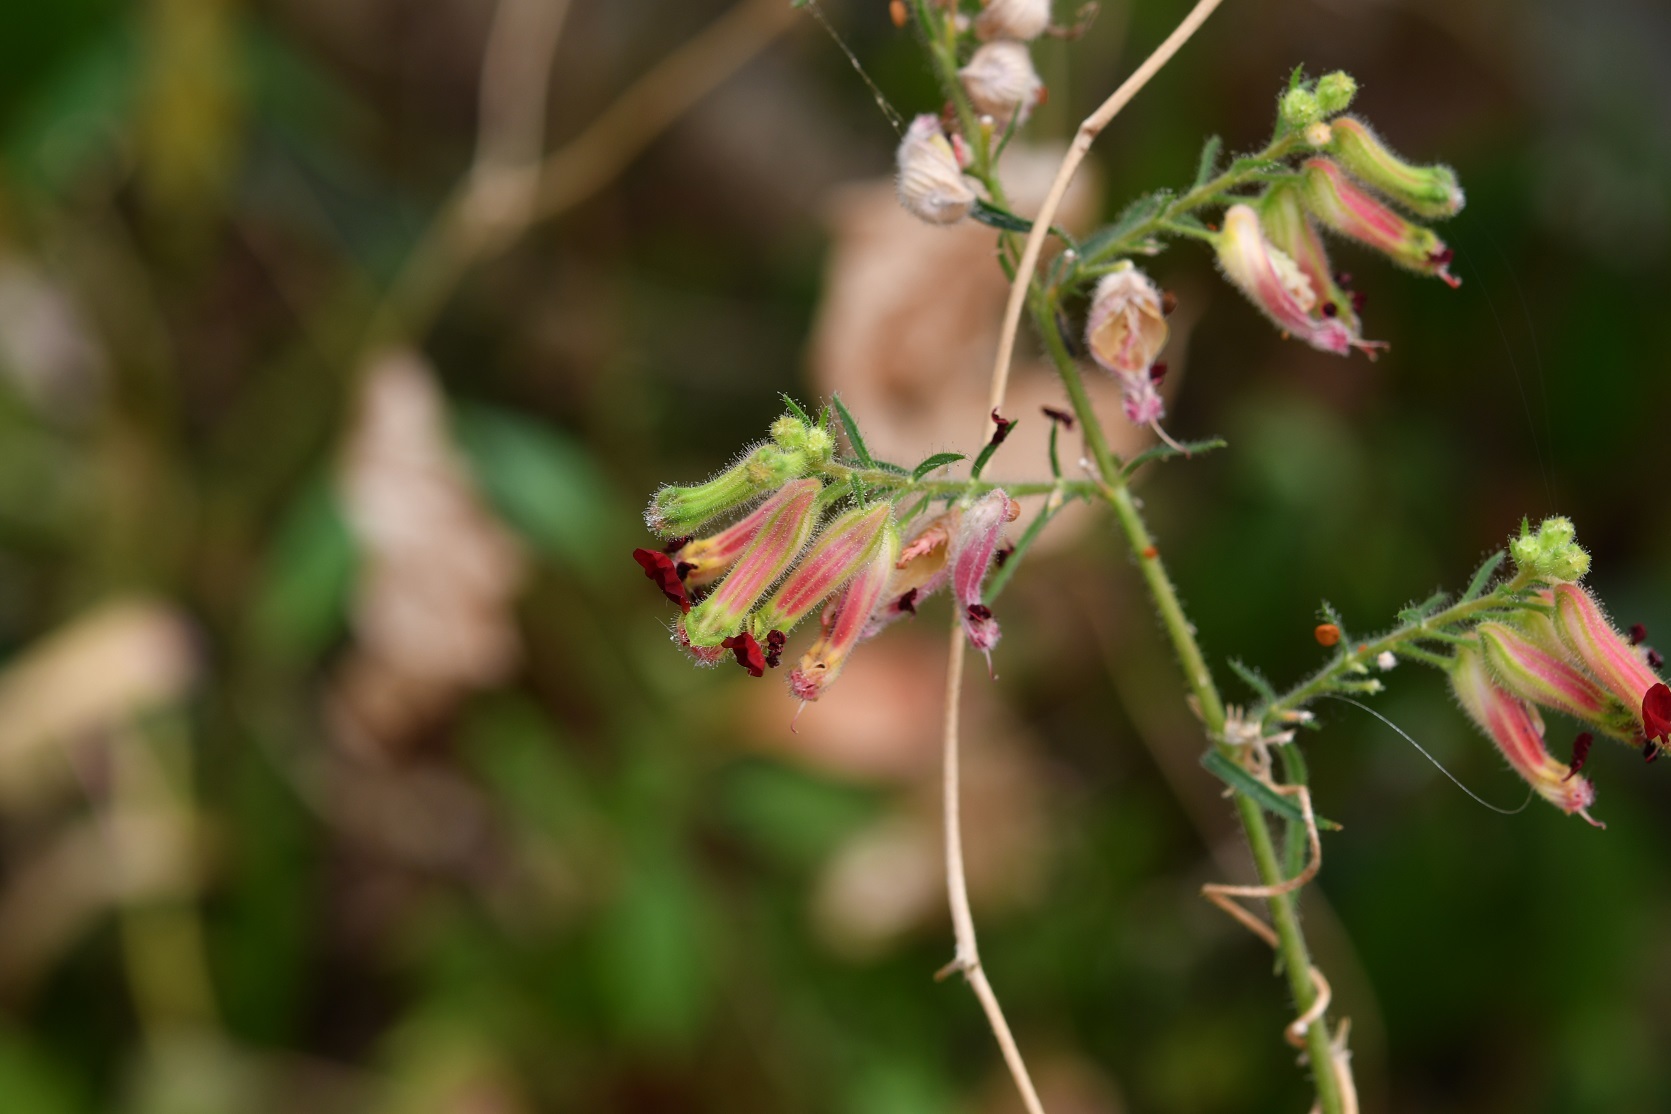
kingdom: Plantae
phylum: Tracheophyta
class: Magnoliopsida
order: Myrtales
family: Lythraceae
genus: Cuphea
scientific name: Cuphea hookeriana
